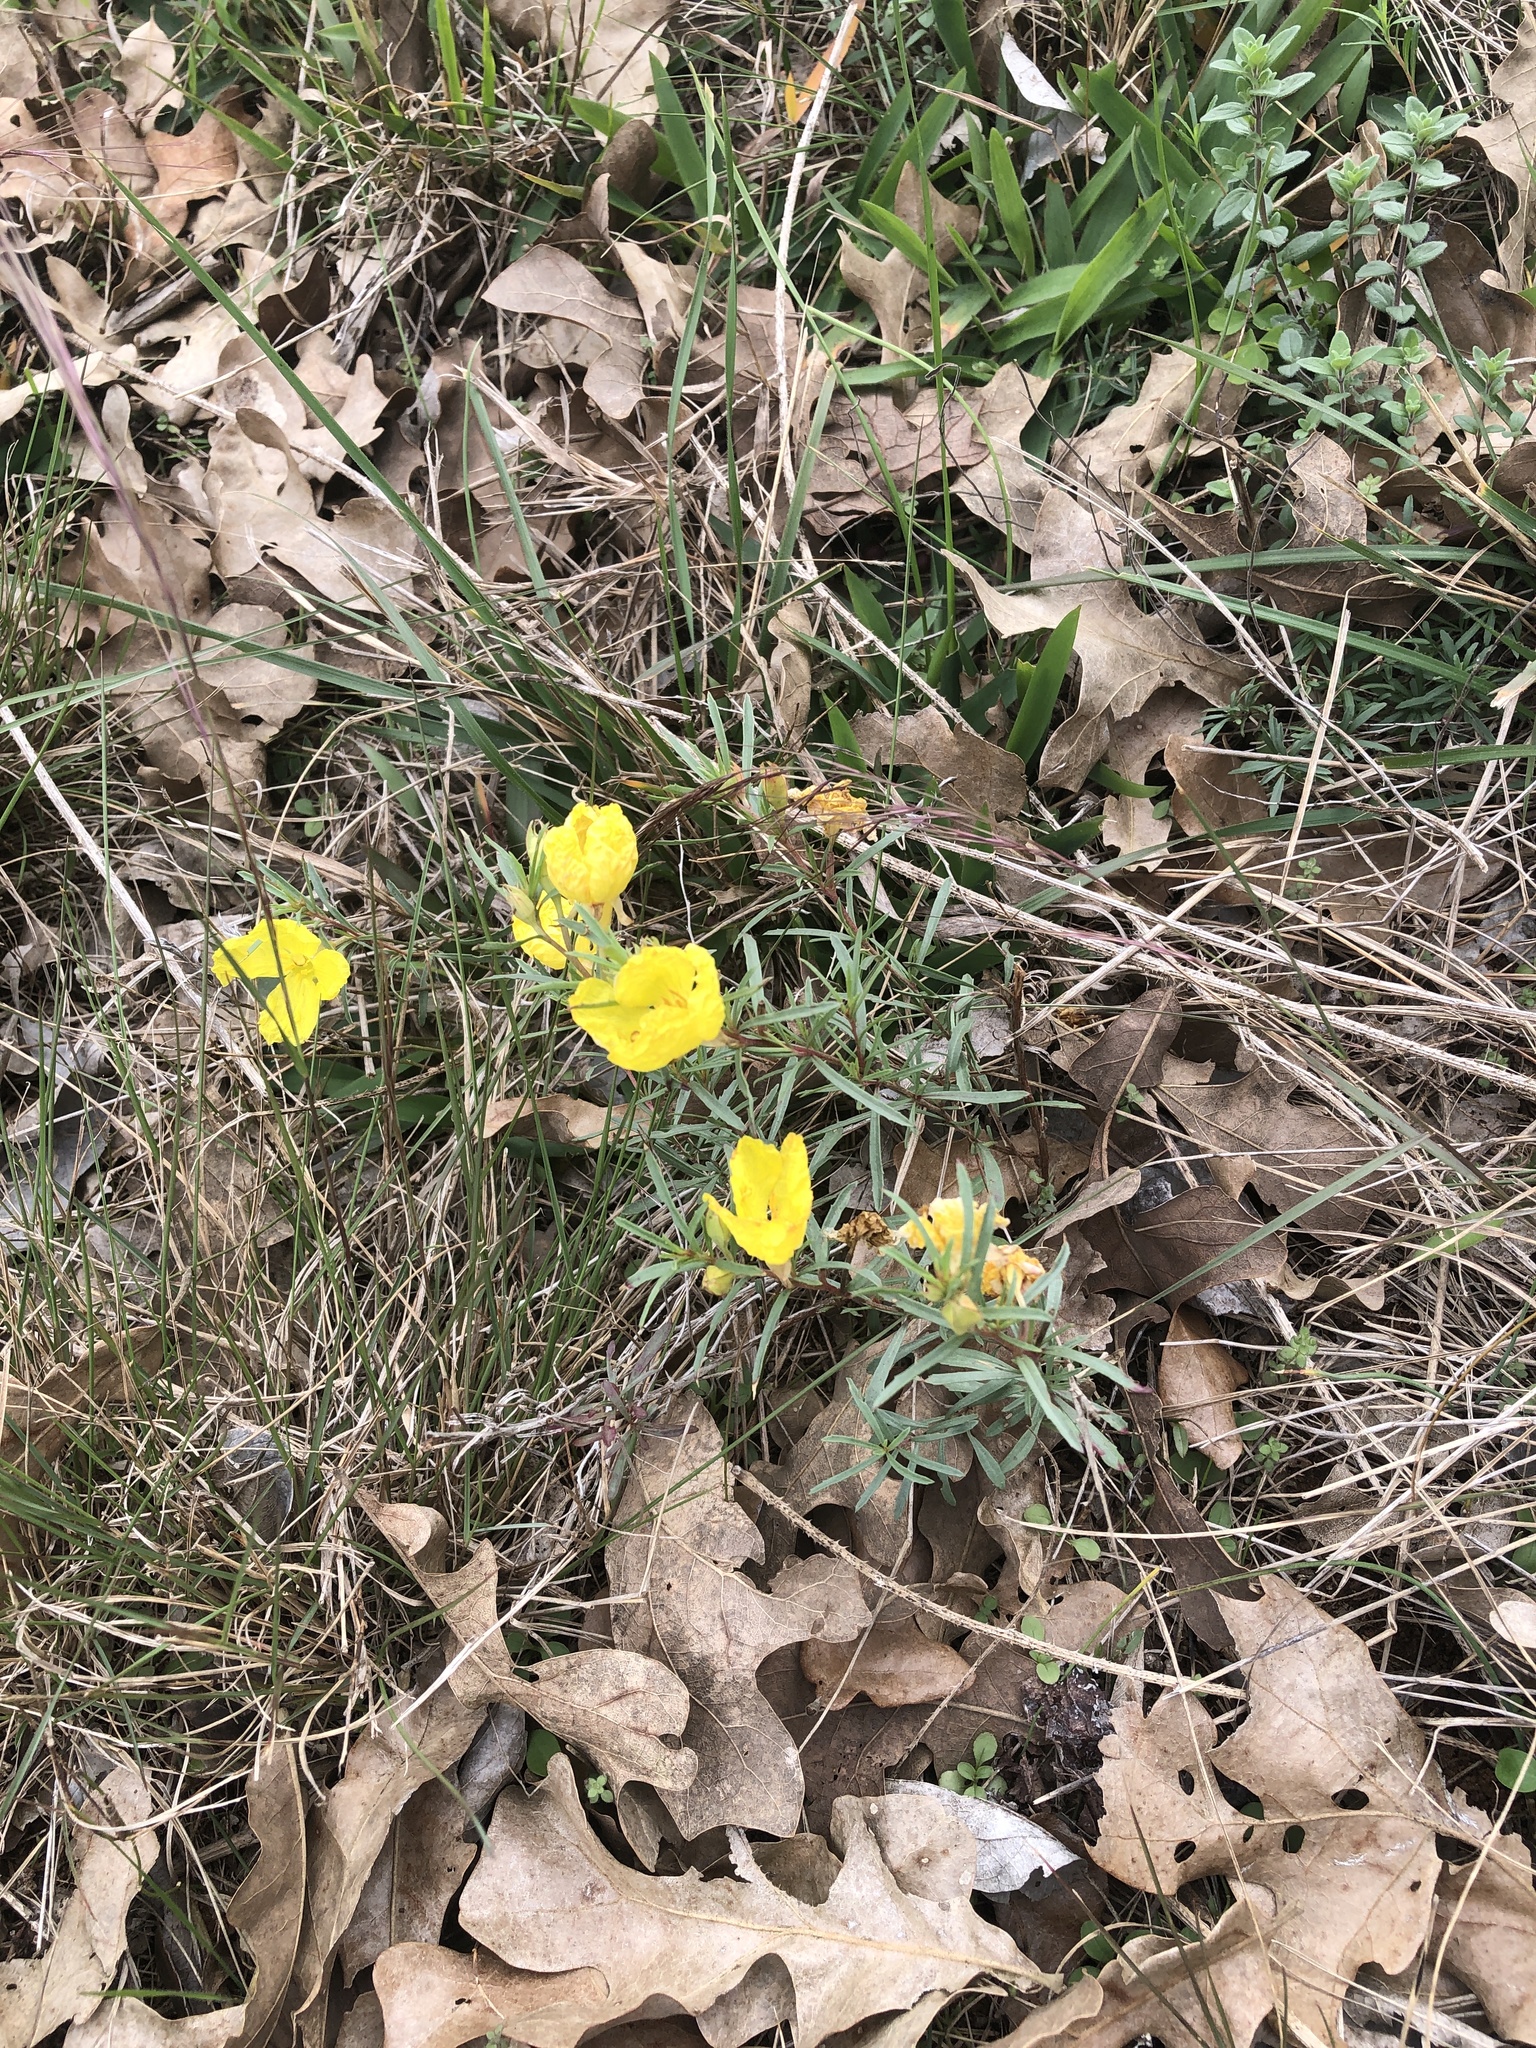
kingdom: Plantae
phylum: Tracheophyta
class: Magnoliopsida
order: Myrtales
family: Onagraceae
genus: Oenothera
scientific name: Oenothera
